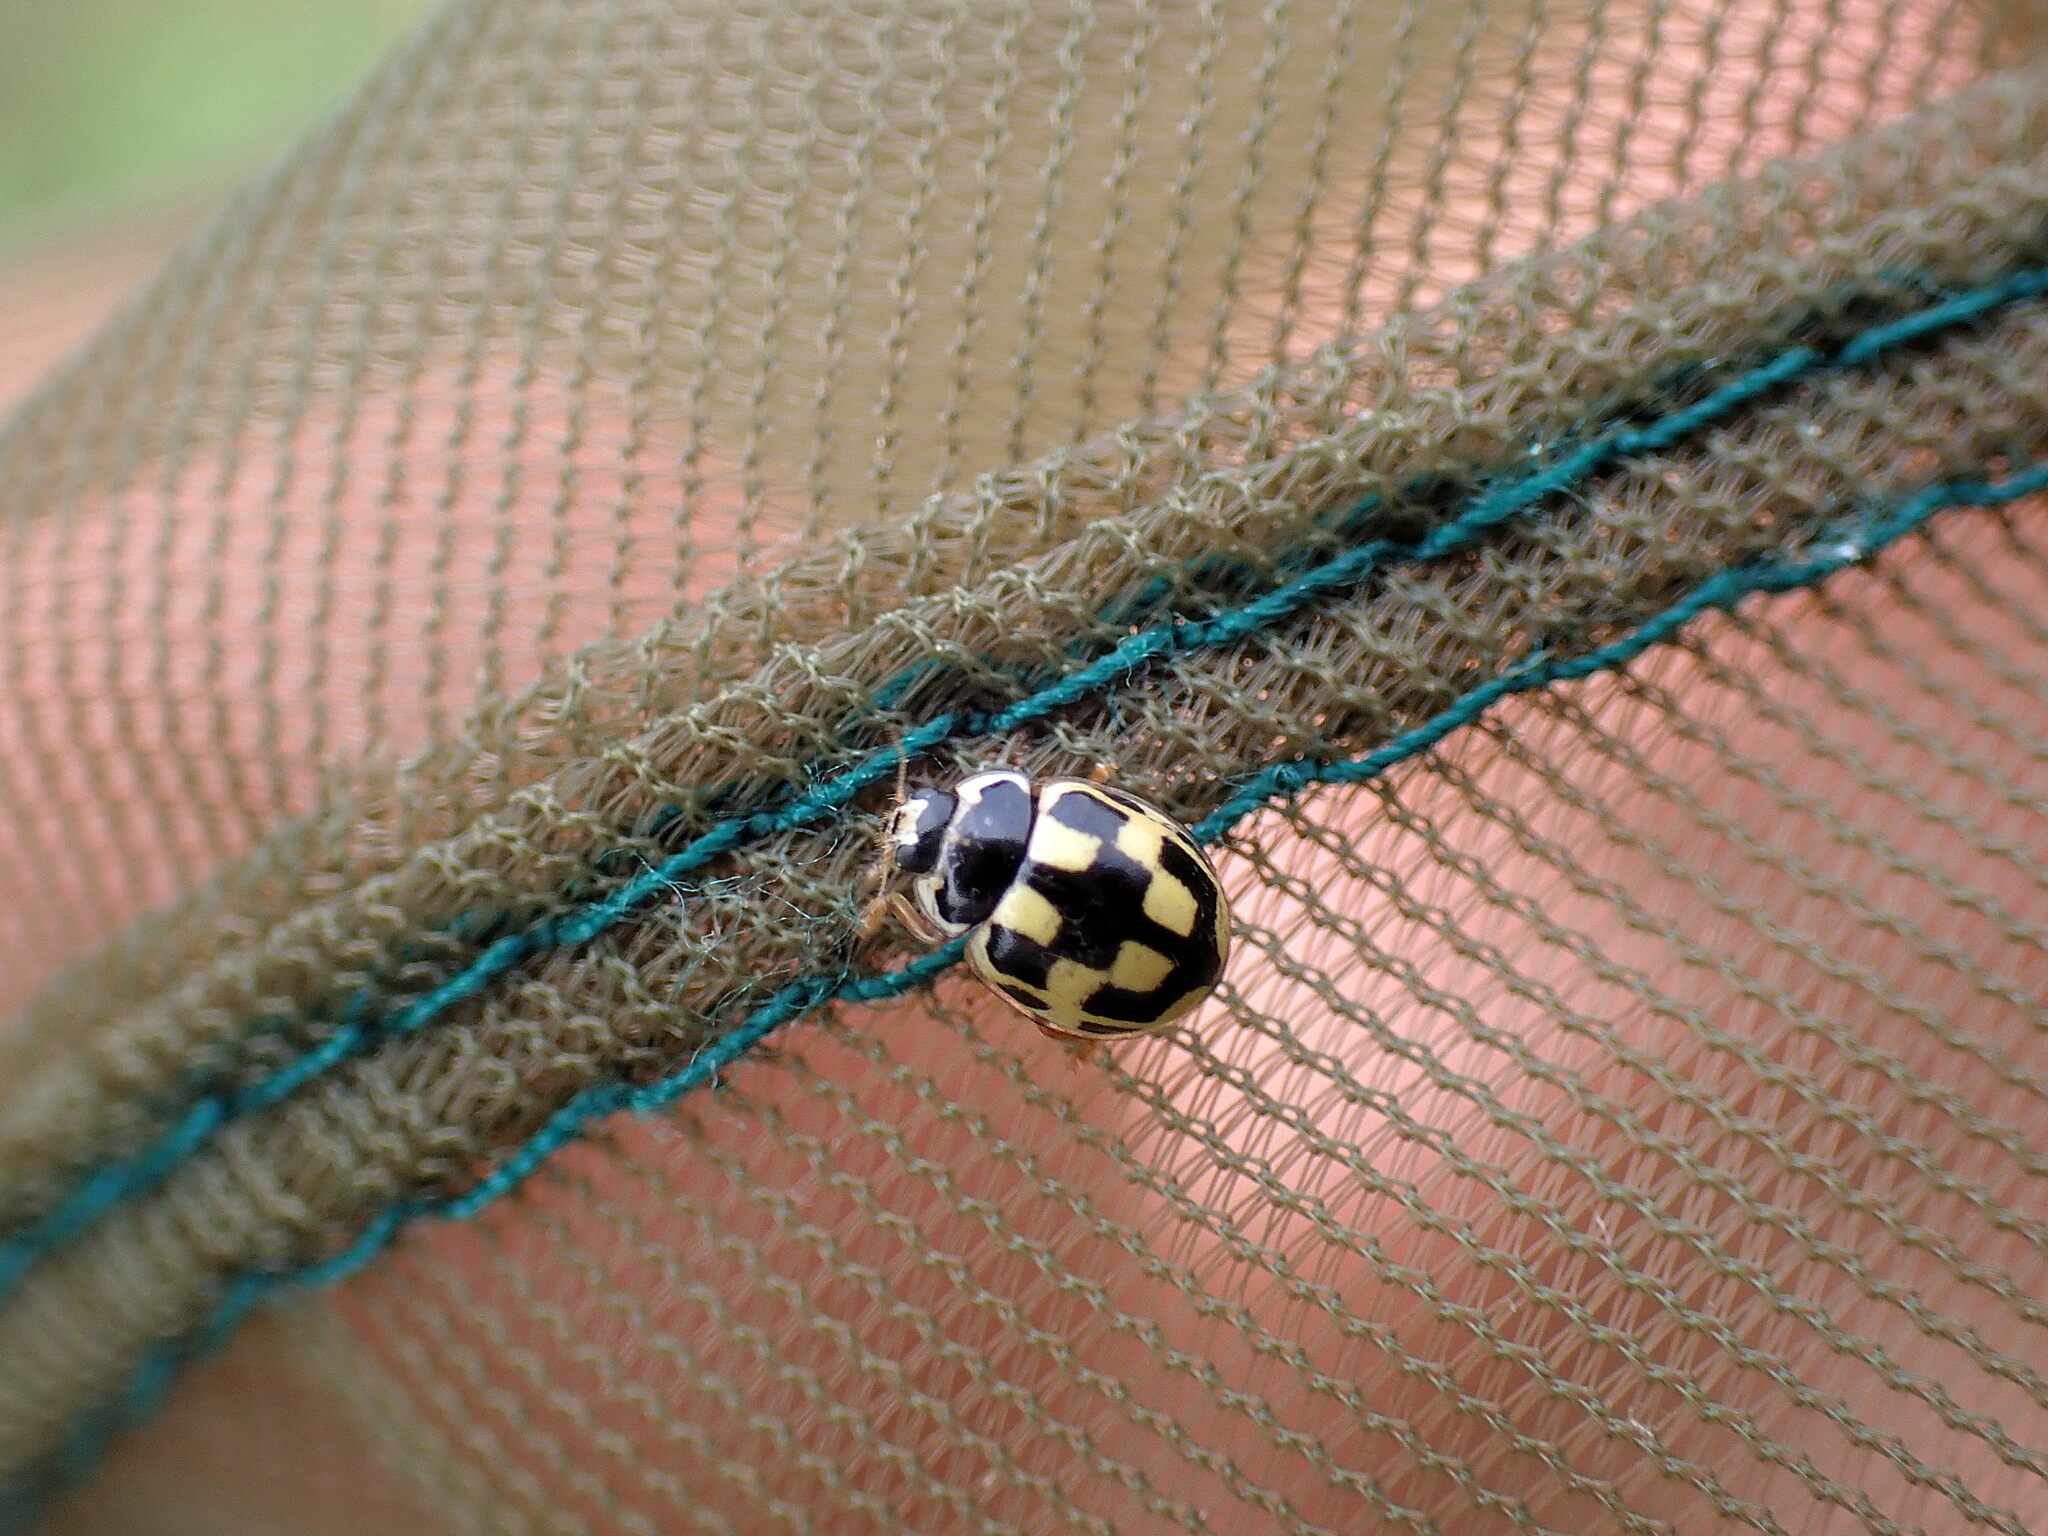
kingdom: Animalia
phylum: Arthropoda
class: Insecta
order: Coleoptera
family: Coccinellidae
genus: Propylaea
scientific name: Propylaea quatuordecimpunctata
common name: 14-spotted ladybird beetle
